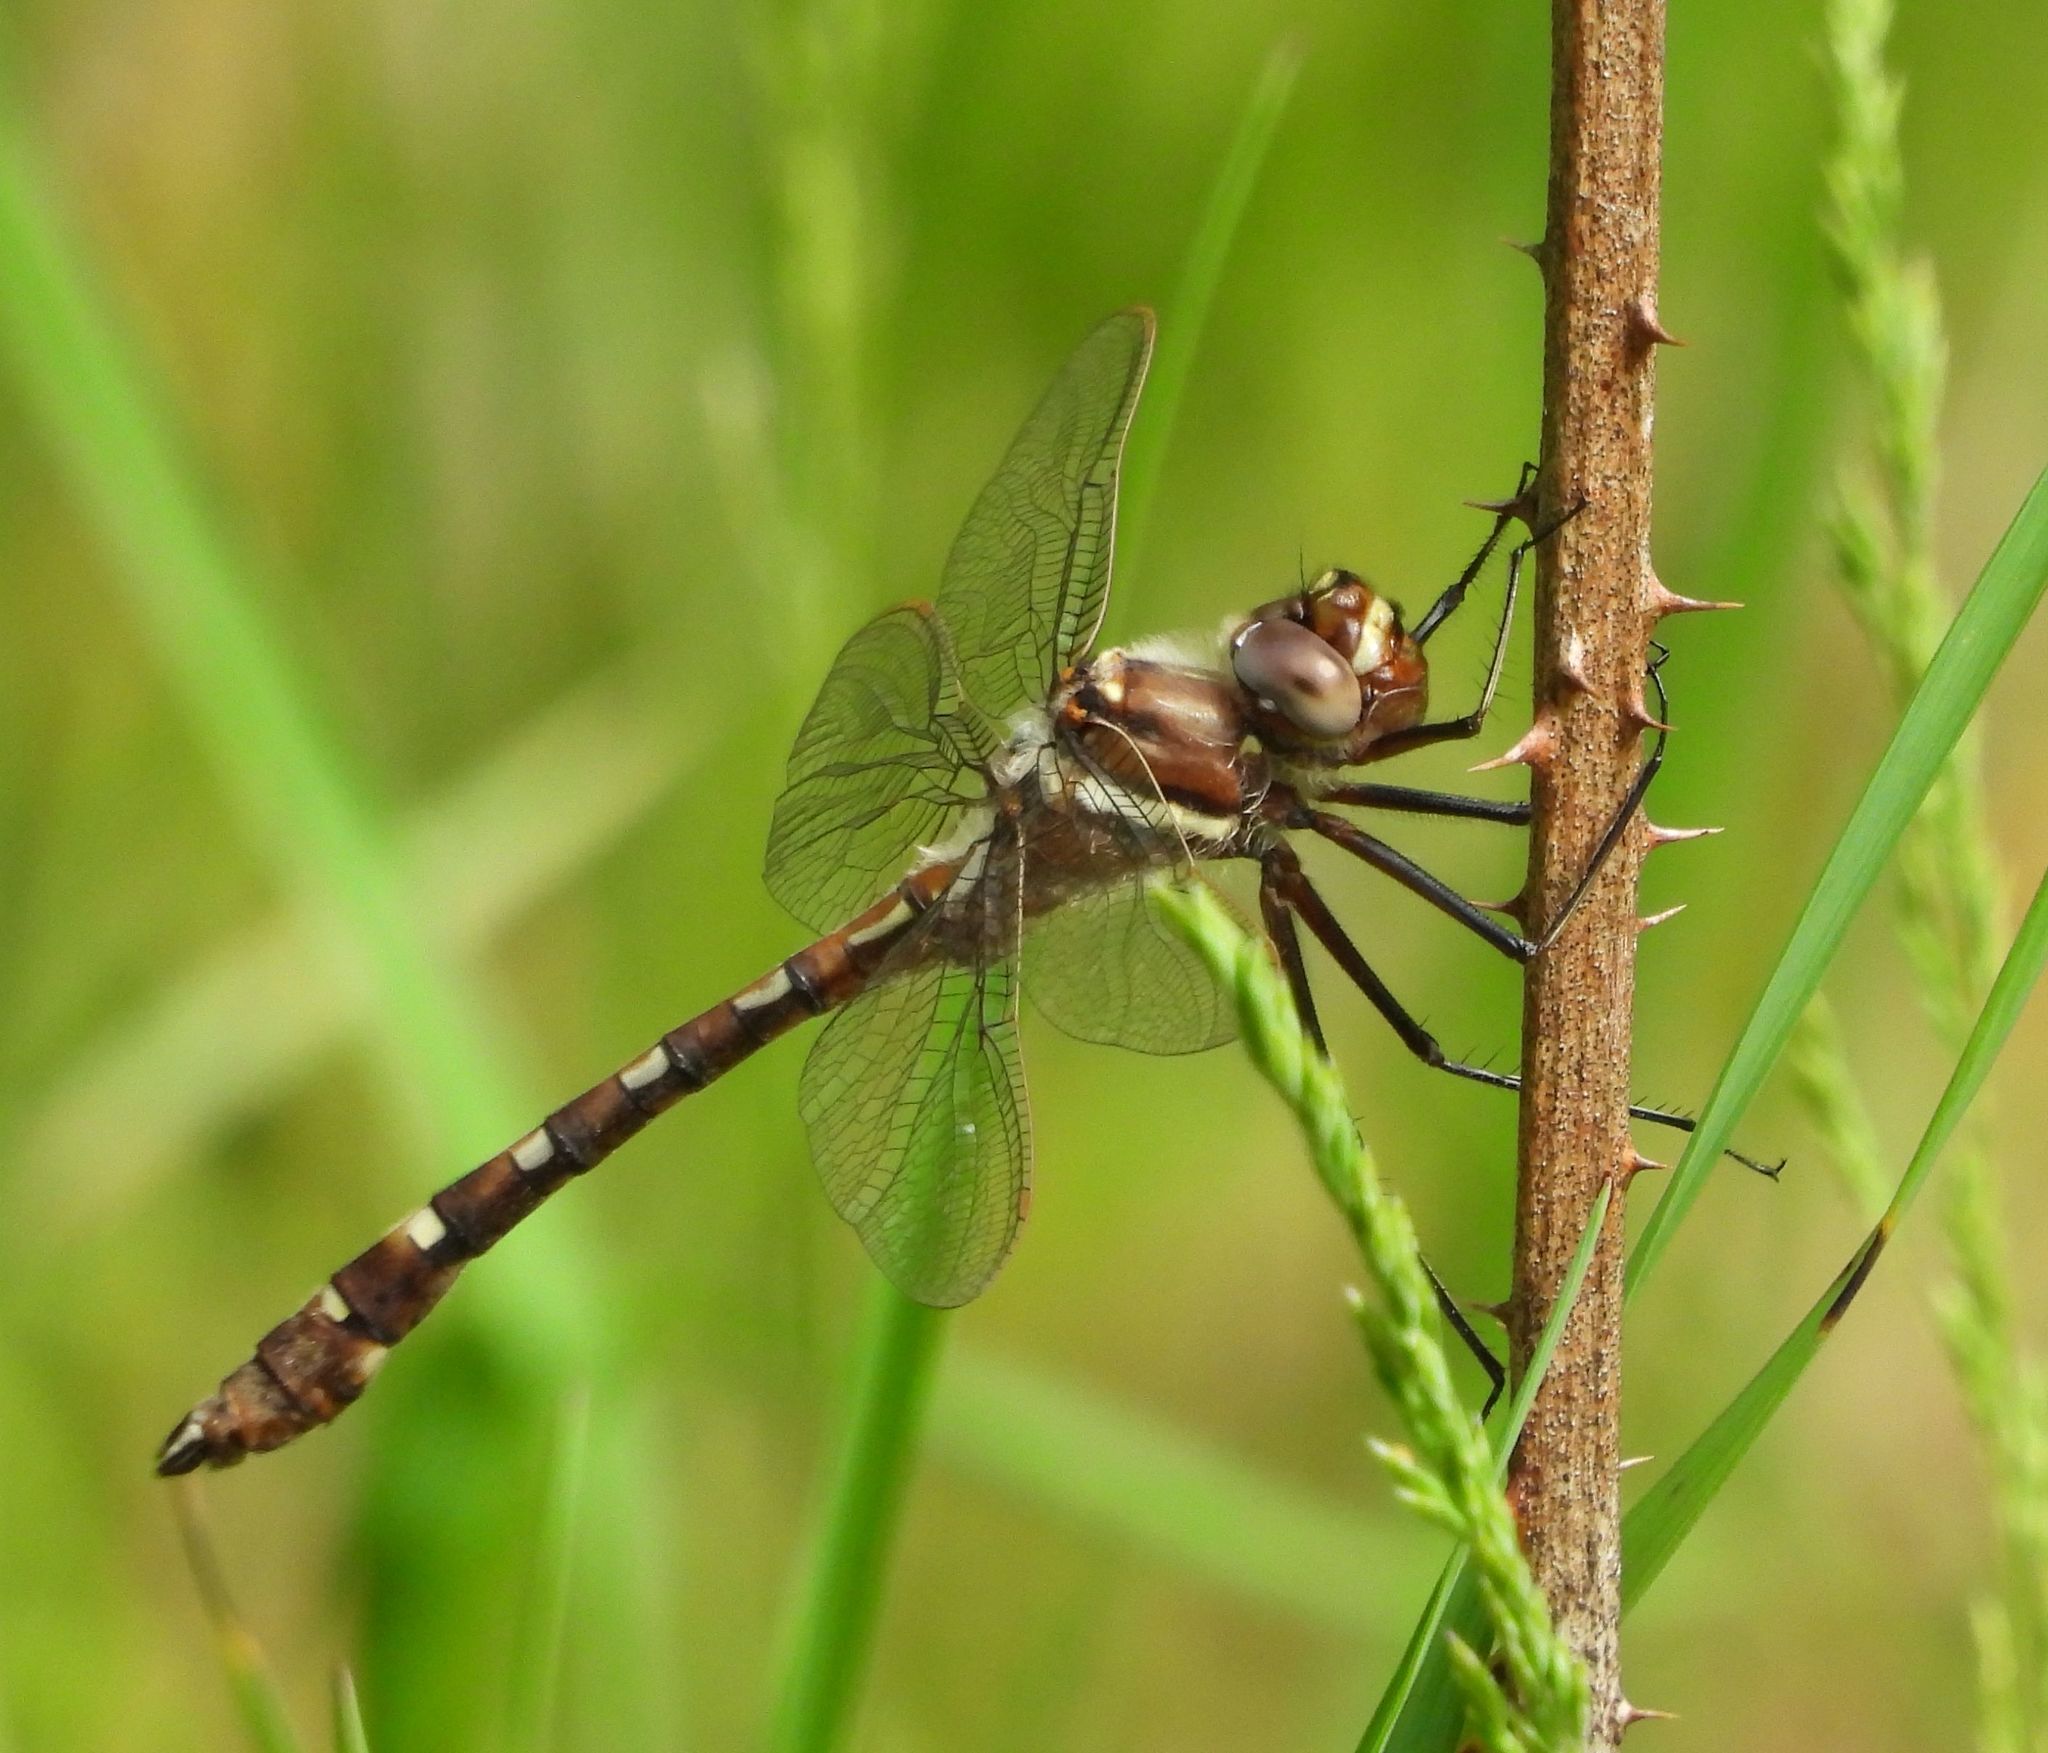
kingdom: Animalia
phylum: Arthropoda
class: Insecta
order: Odonata
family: Macromiidae
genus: Didymops
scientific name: Didymops transversa
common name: Stream cruiser
